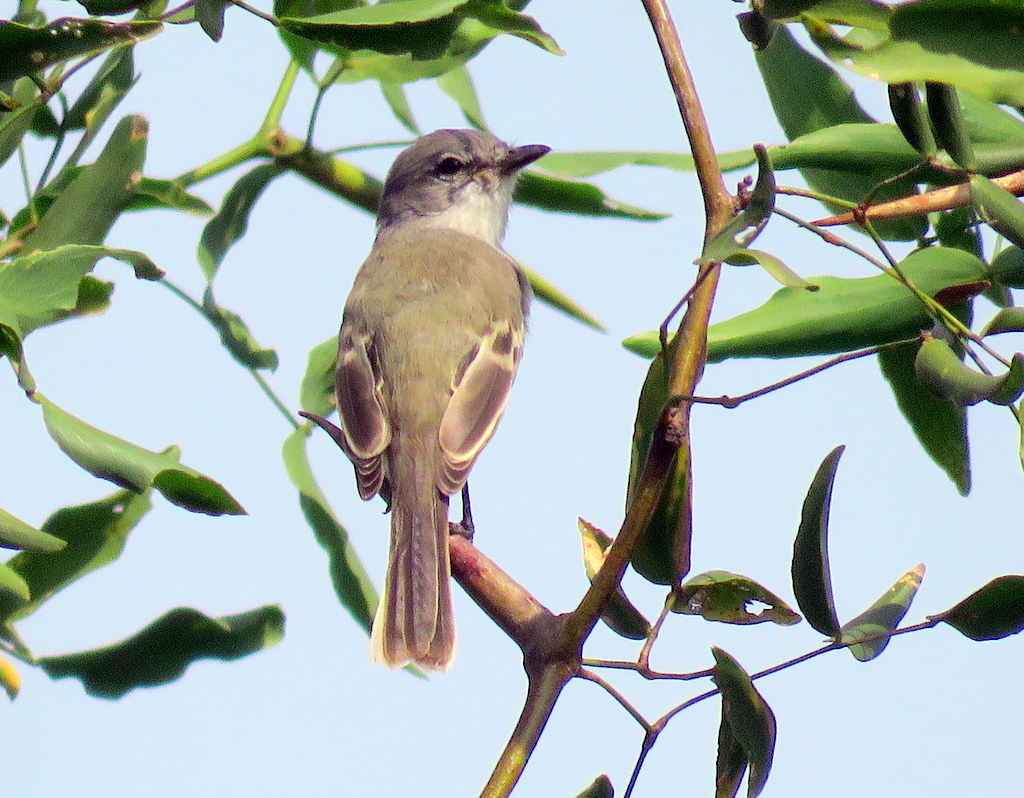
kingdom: Animalia
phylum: Chordata
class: Aves
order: Passeriformes
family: Tyrannidae
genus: Suiriri
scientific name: Suiriri suiriri
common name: Suiriri flycatcher
